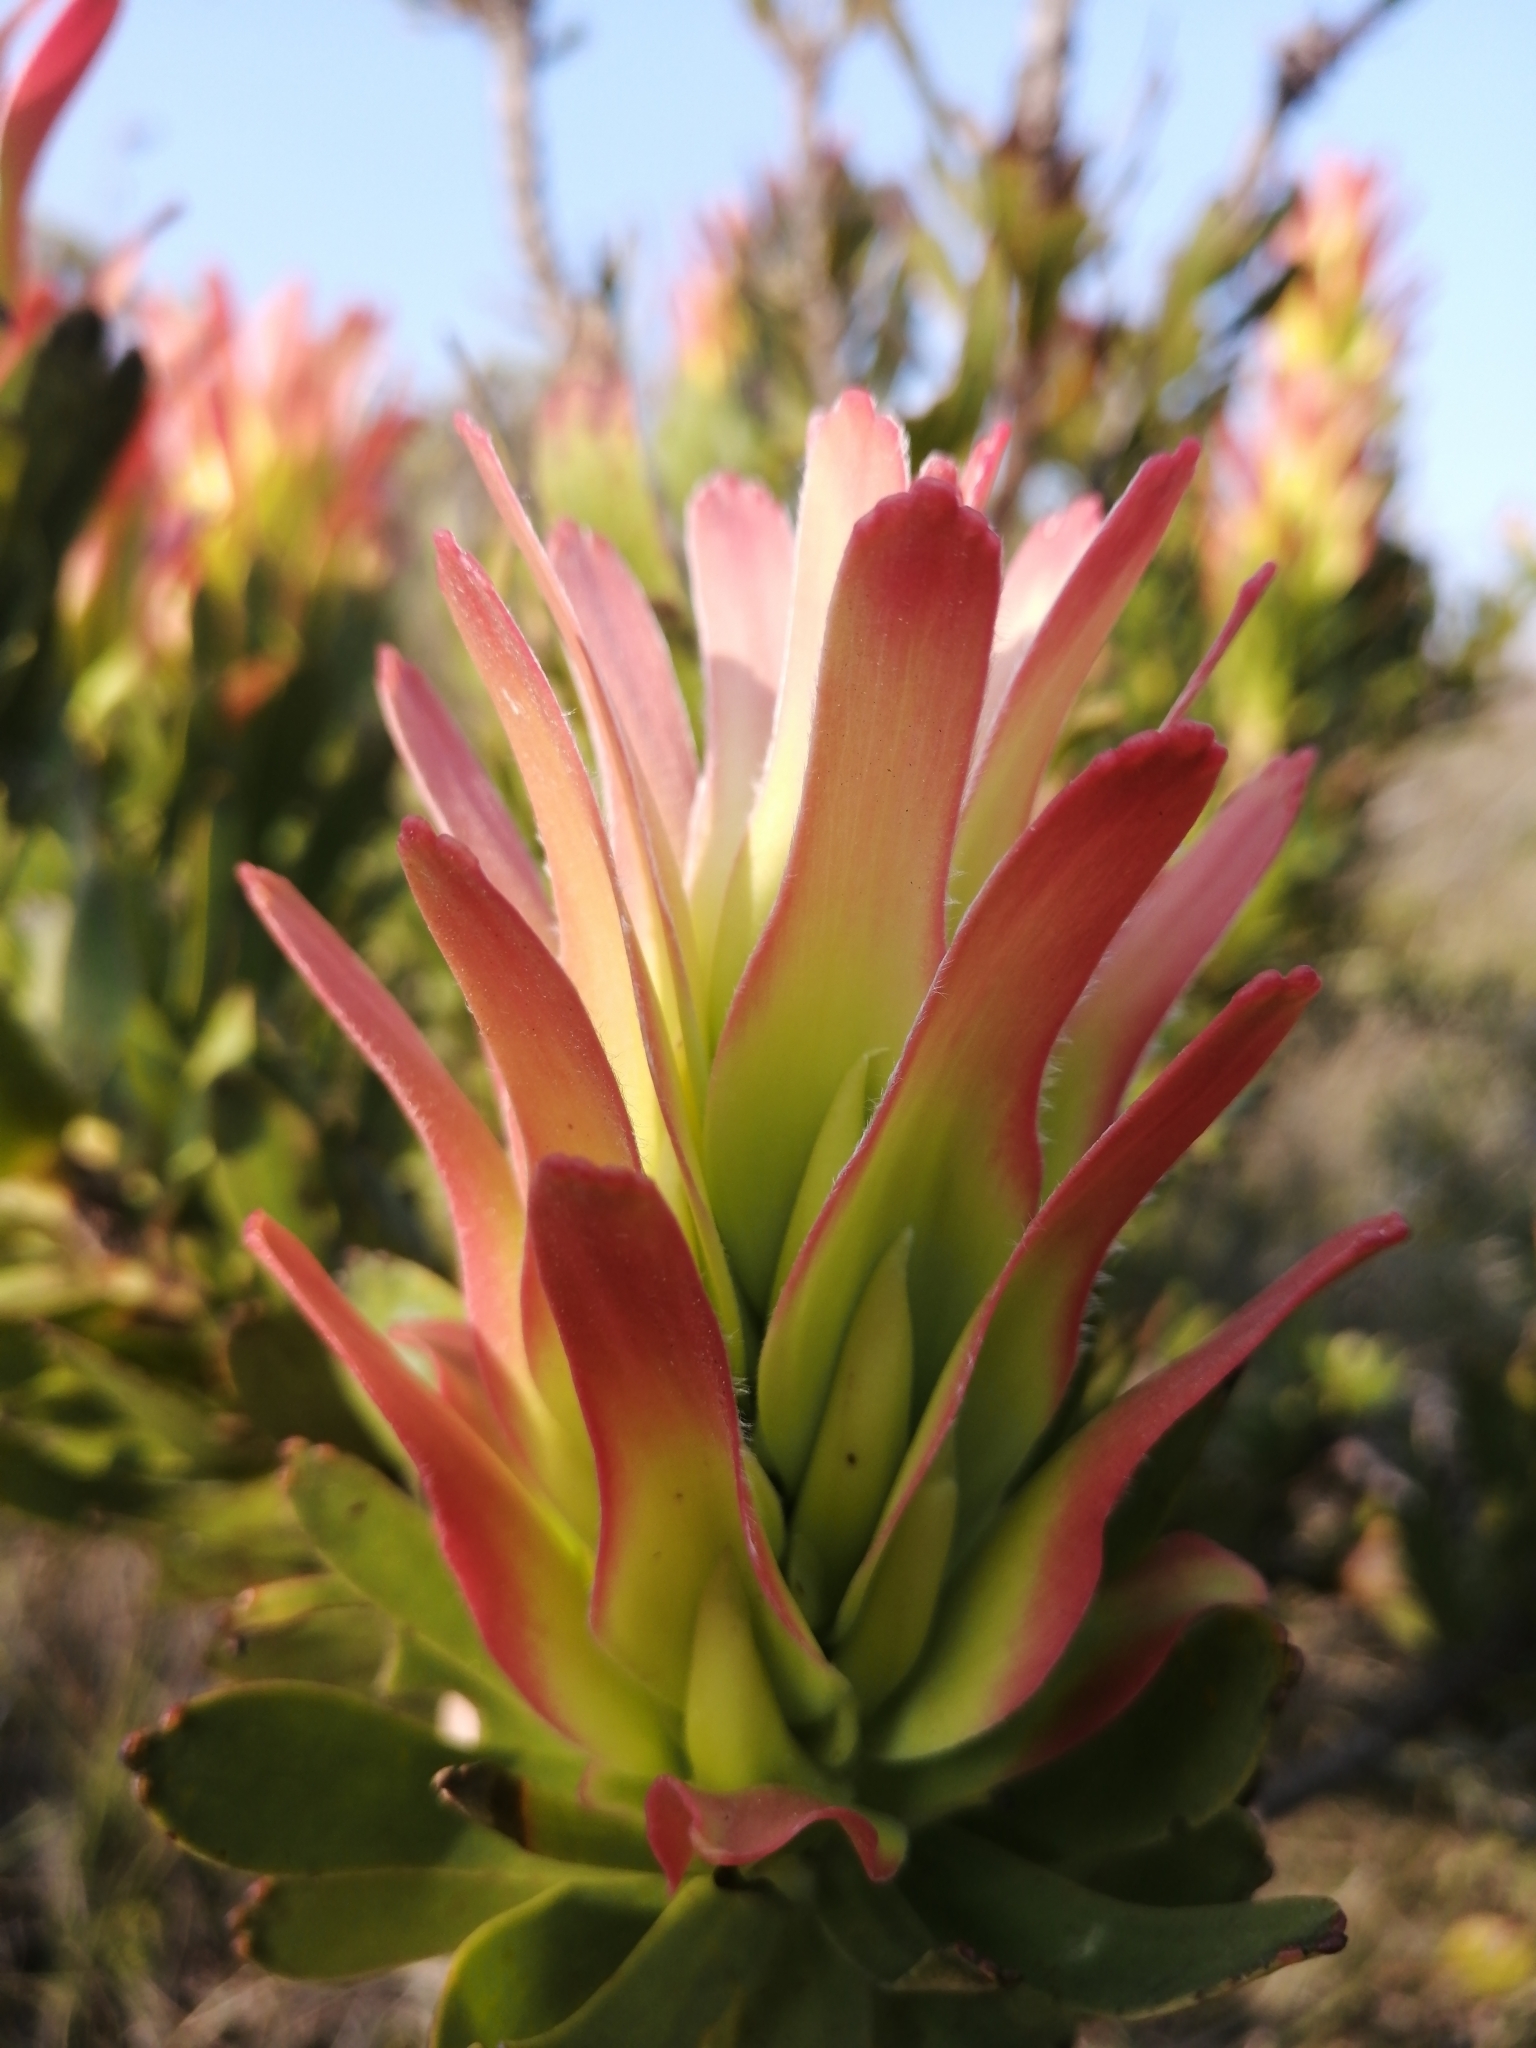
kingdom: Plantae
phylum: Tracheophyta
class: Magnoliopsida
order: Proteales
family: Proteaceae
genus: Mimetes
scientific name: Mimetes cucullatus
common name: Common pagoda
